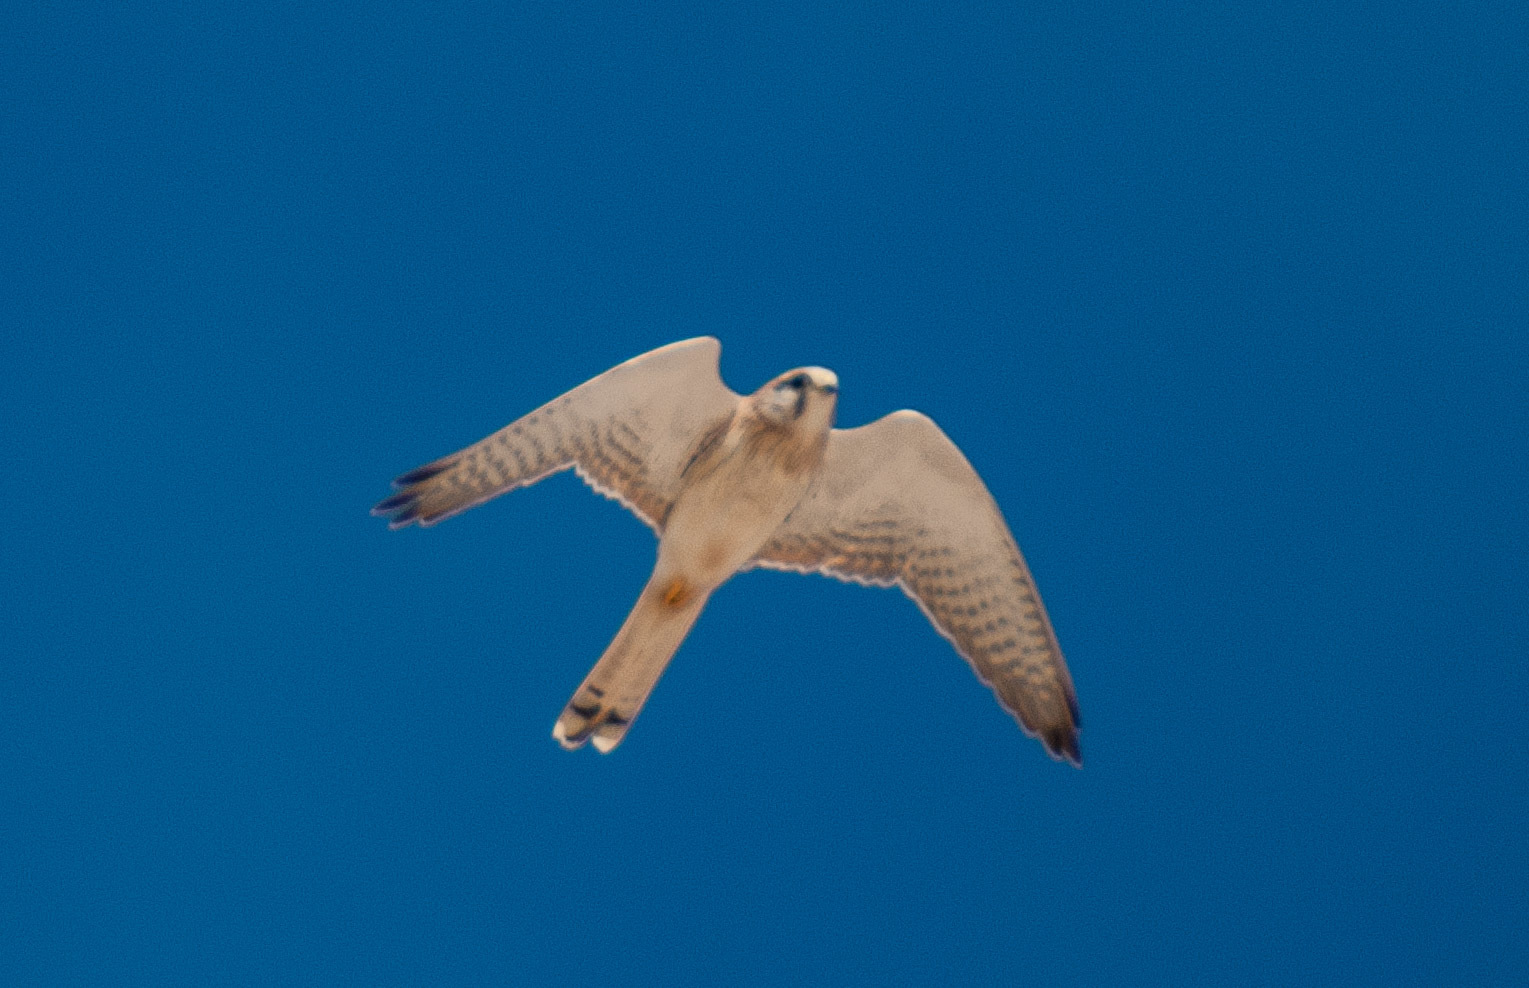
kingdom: Animalia
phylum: Chordata
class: Aves
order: Falconiformes
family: Falconidae
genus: Falco
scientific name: Falco cenchroides
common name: Nankeen kestrel
